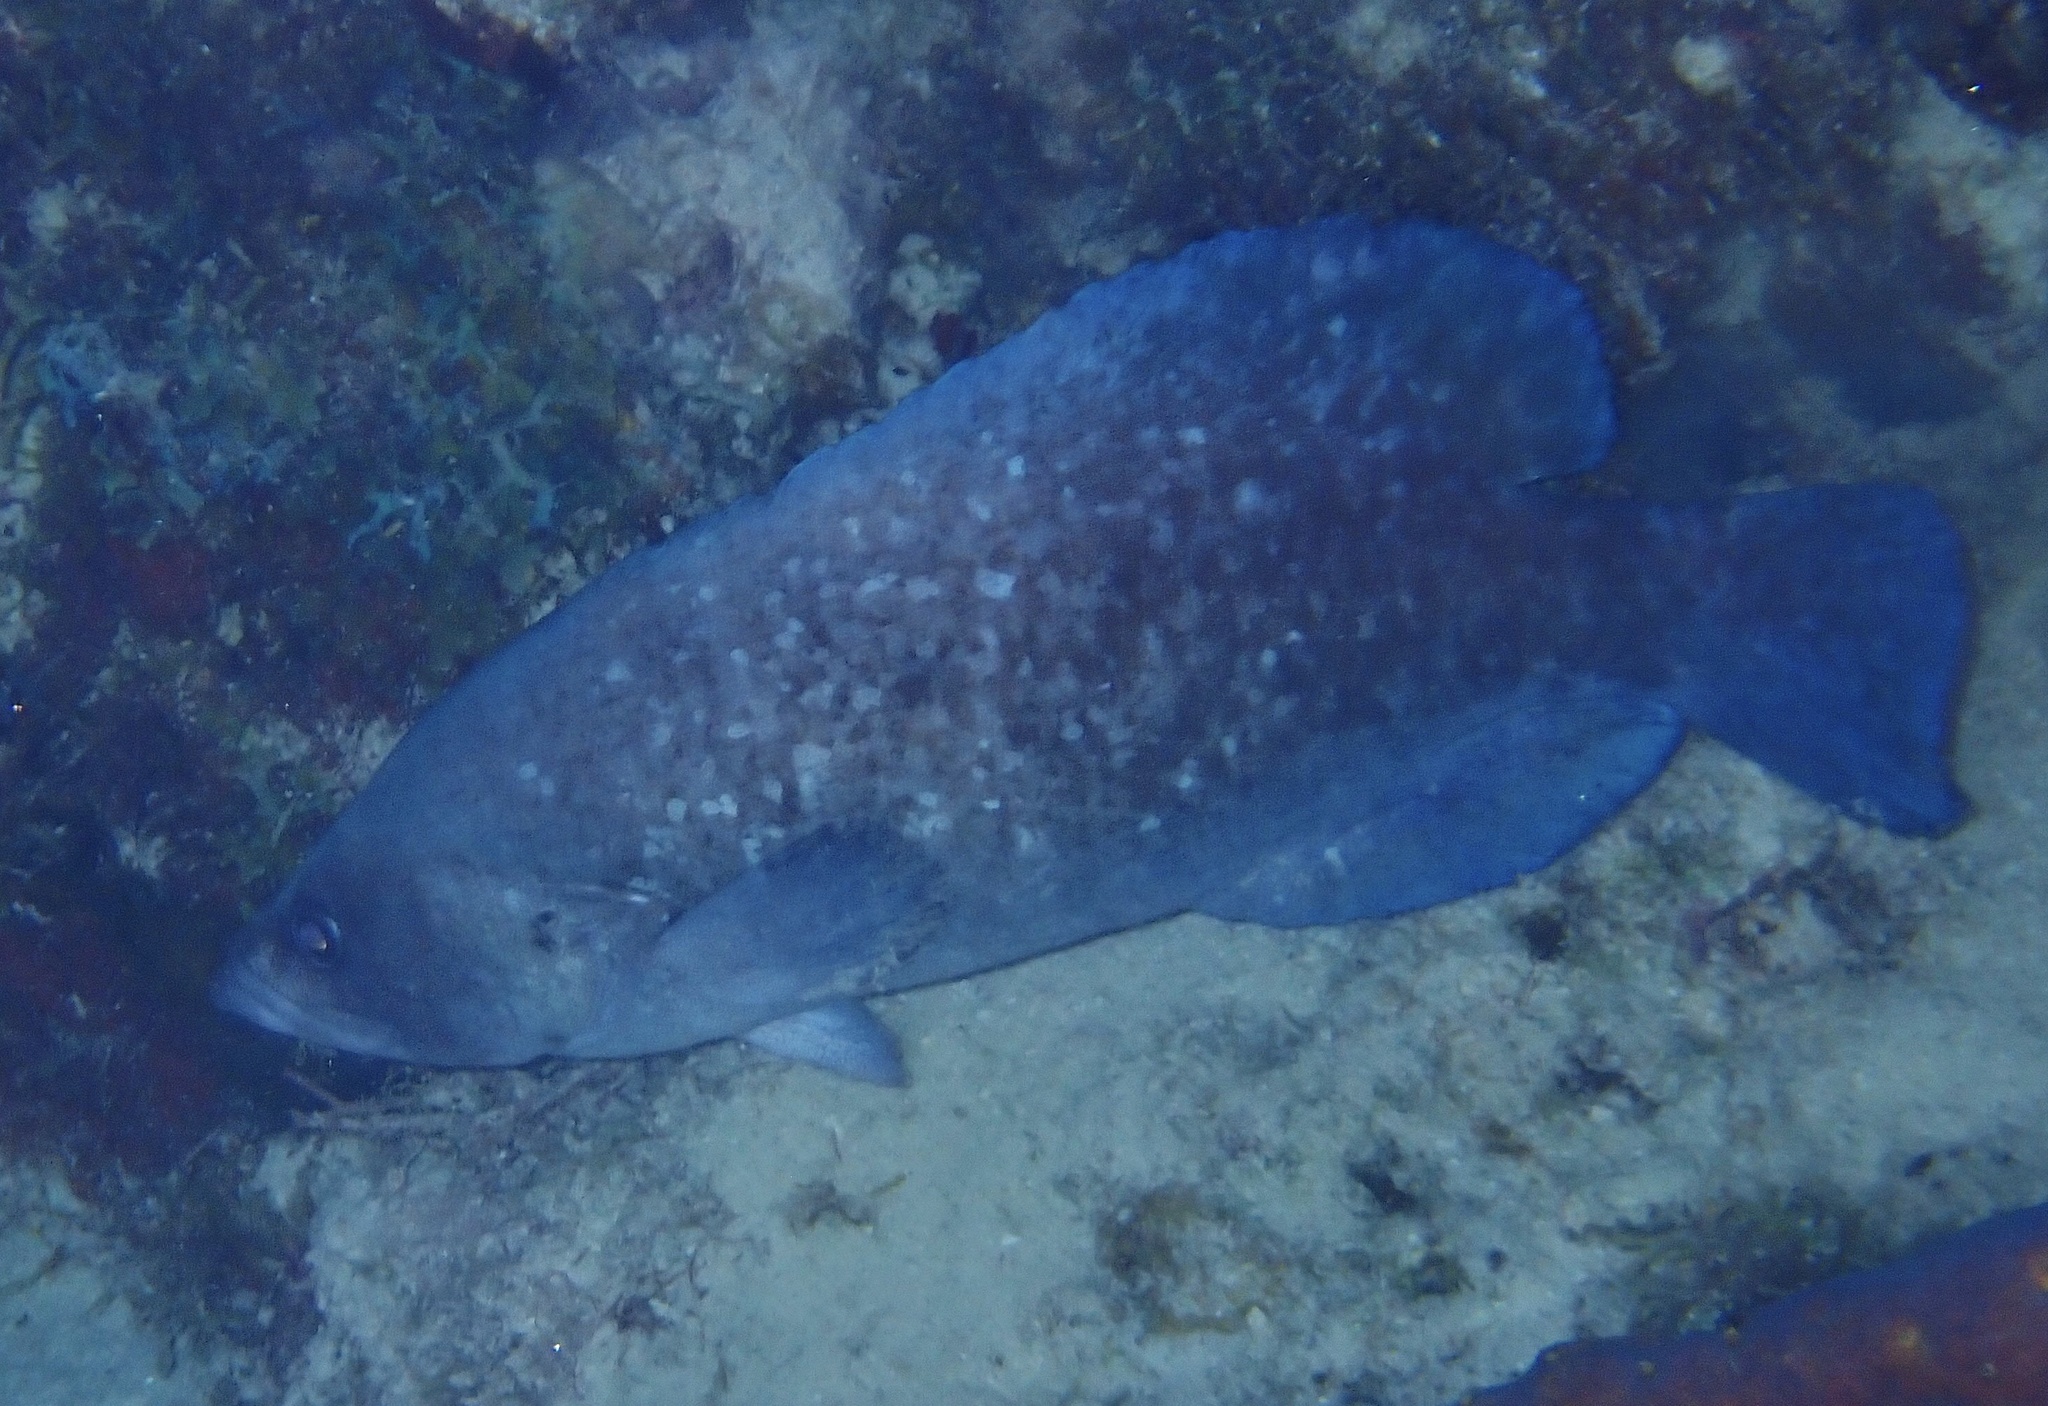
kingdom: Animalia
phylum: Chordata
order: Perciformes
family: Serranidae
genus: Rypticus
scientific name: Rypticus saponaceus
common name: Soapfish
